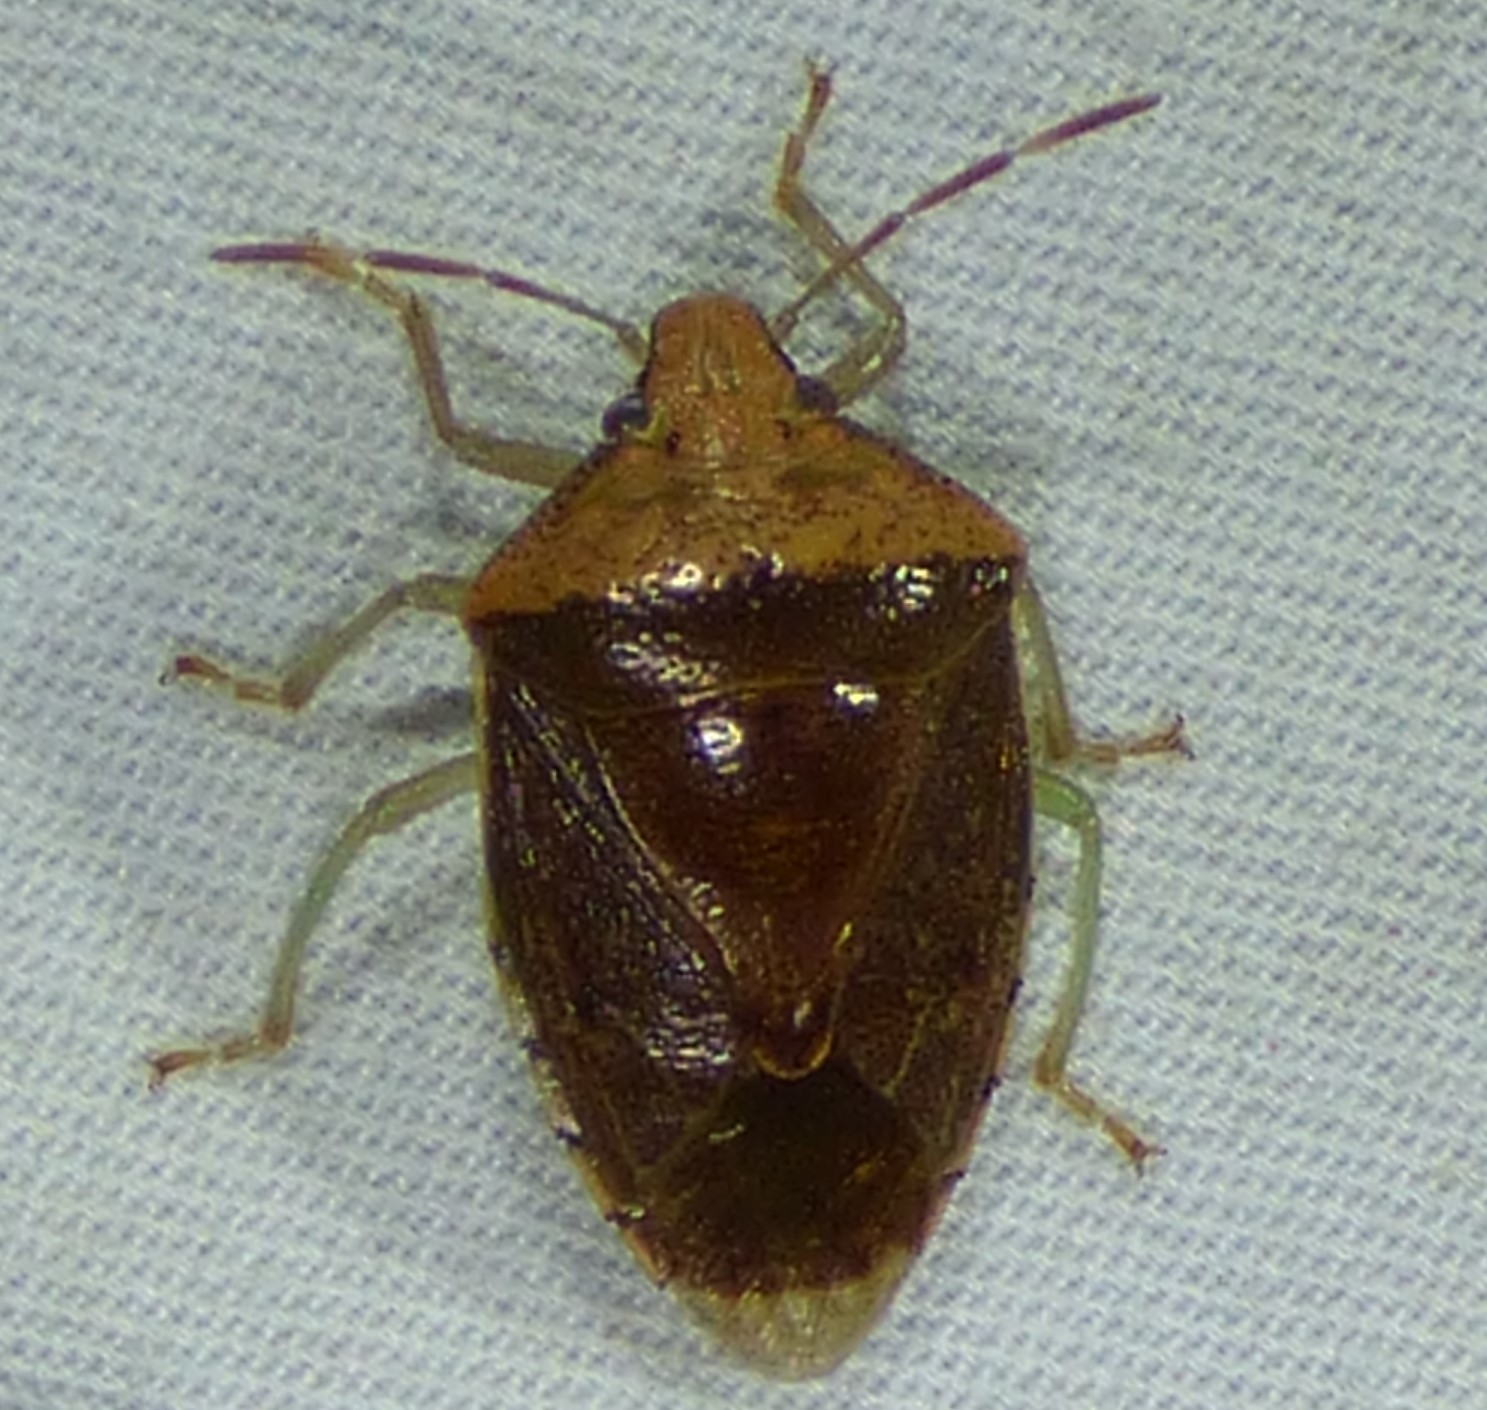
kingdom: Animalia
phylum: Arthropoda
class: Insecta
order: Hemiptera
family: Pentatomidae
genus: Banasa
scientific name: Banasa calva
